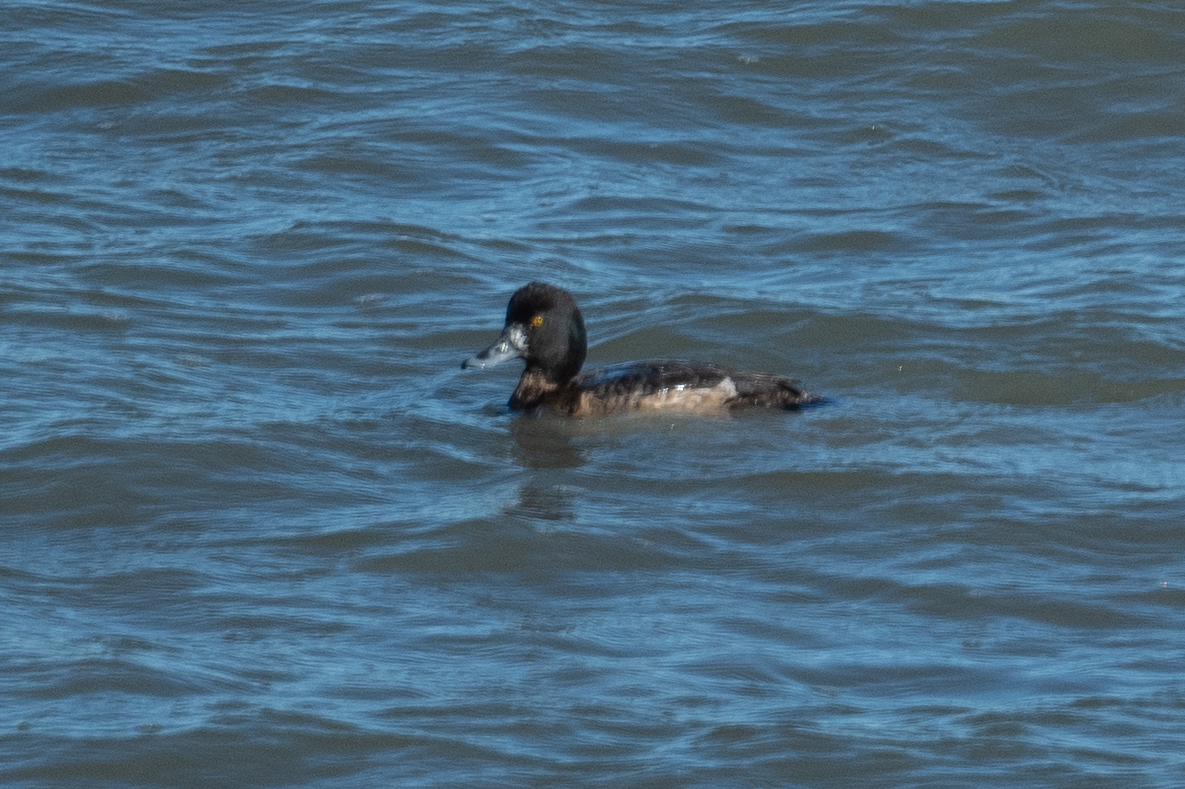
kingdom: Animalia
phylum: Chordata
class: Aves
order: Anseriformes
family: Anatidae
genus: Aythya
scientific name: Aythya marila
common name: Greater scaup
